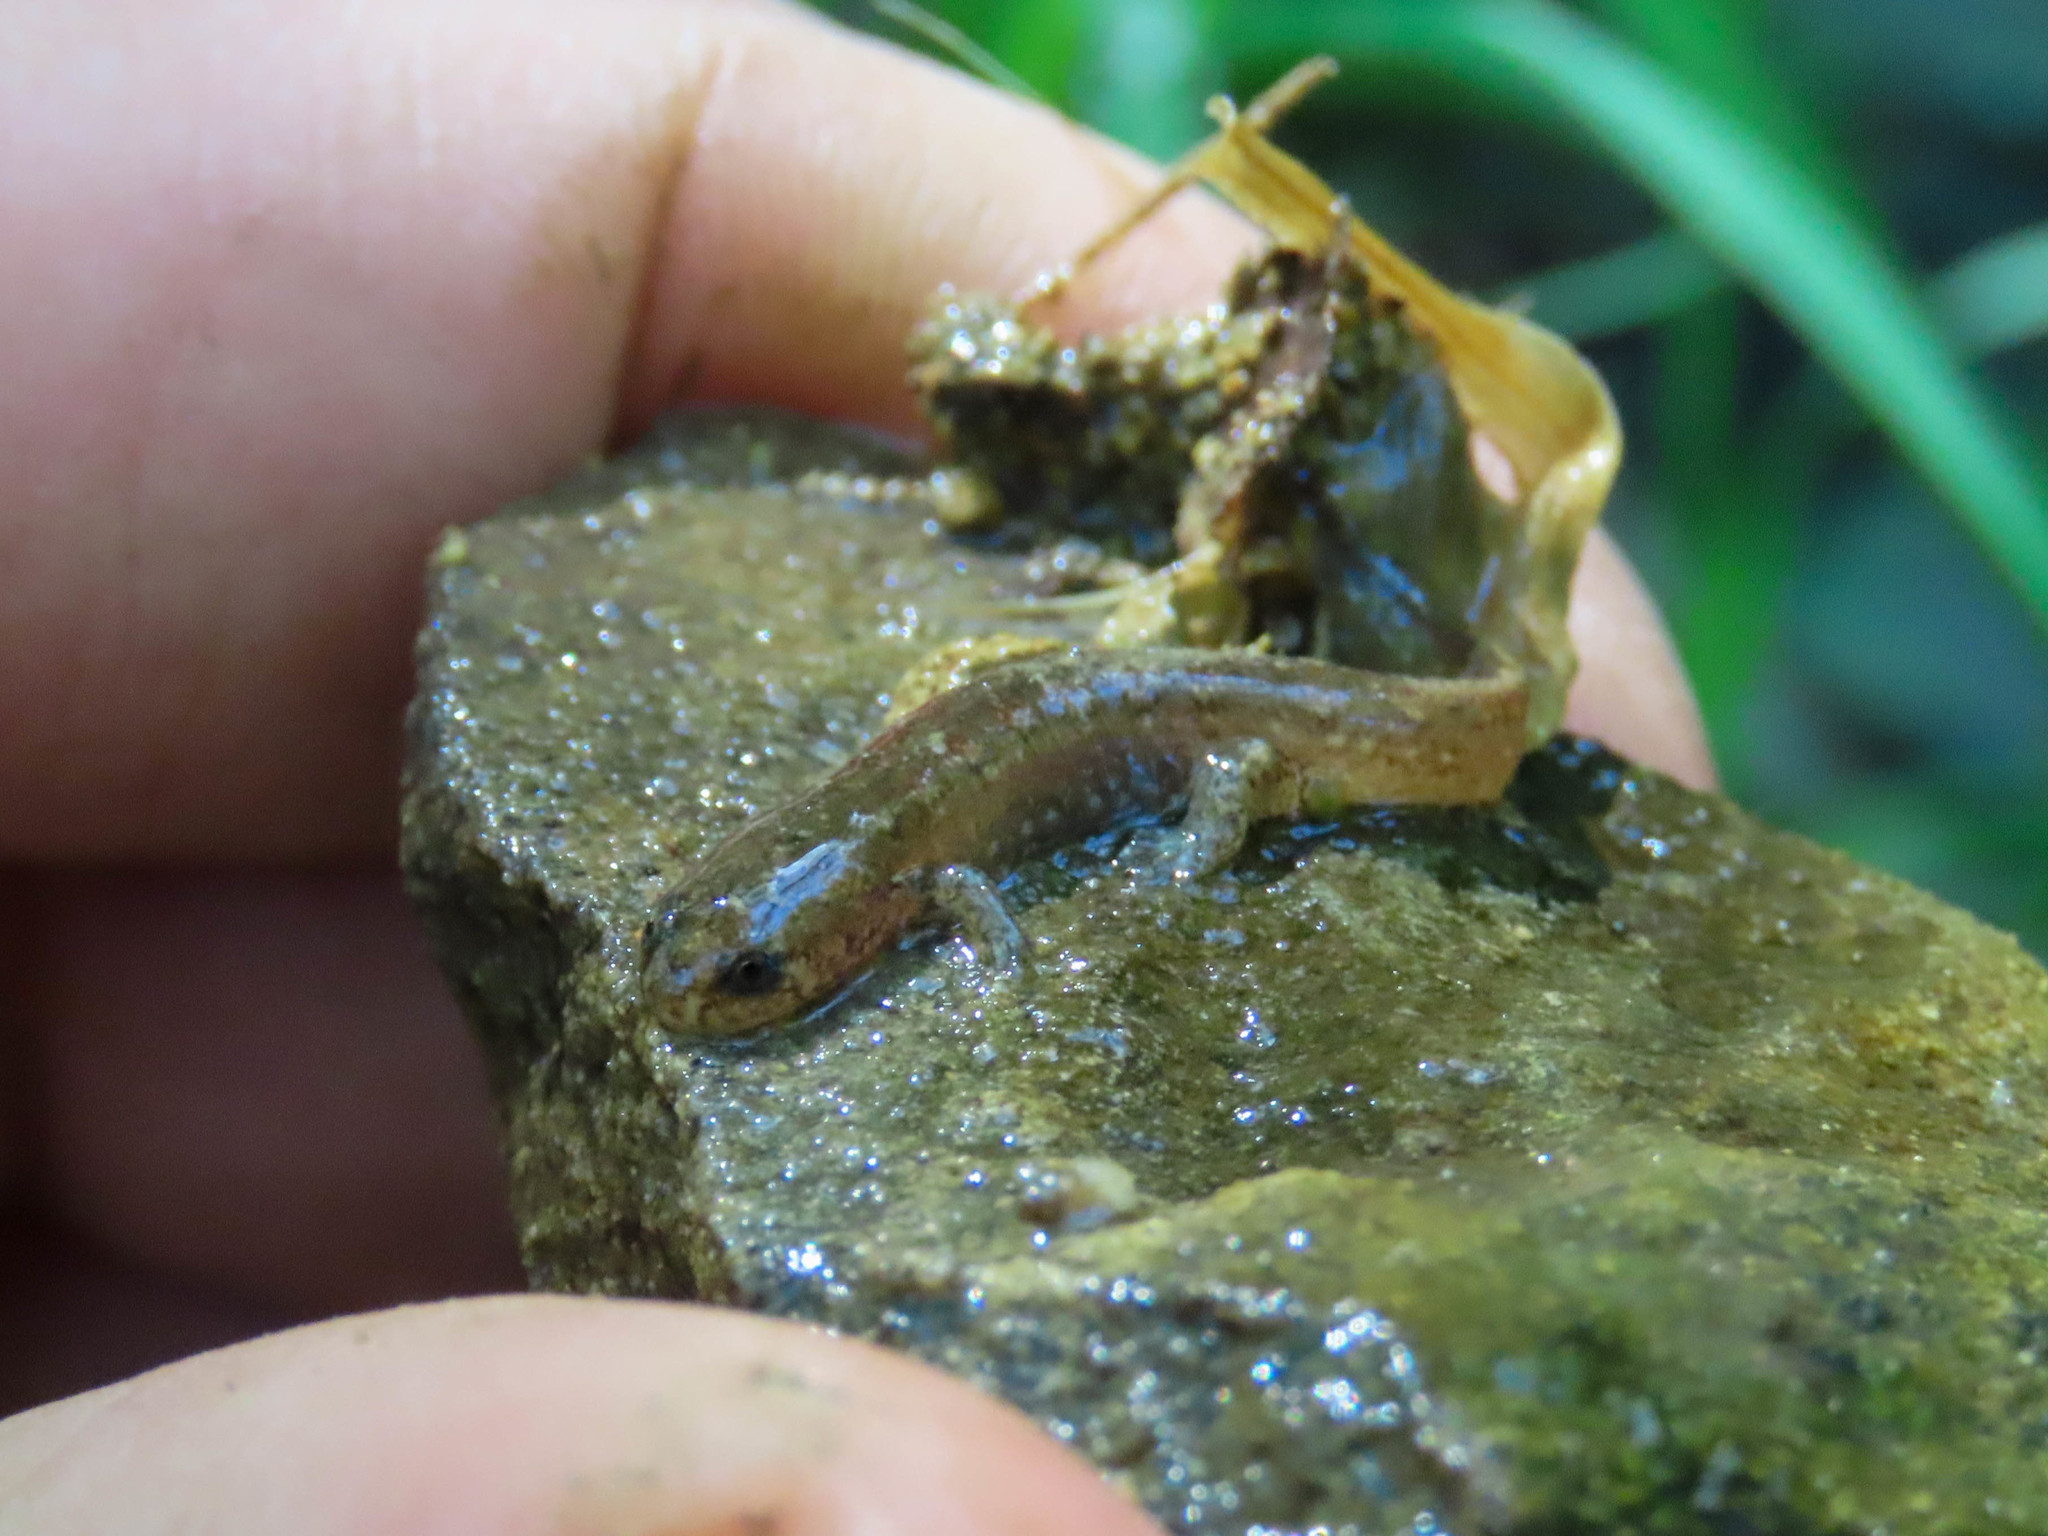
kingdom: Animalia
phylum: Chordata
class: Amphibia
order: Caudata
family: Plethodontidae
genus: Desmognathus
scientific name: Desmognathus fuscus
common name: Northern dusky salamander
